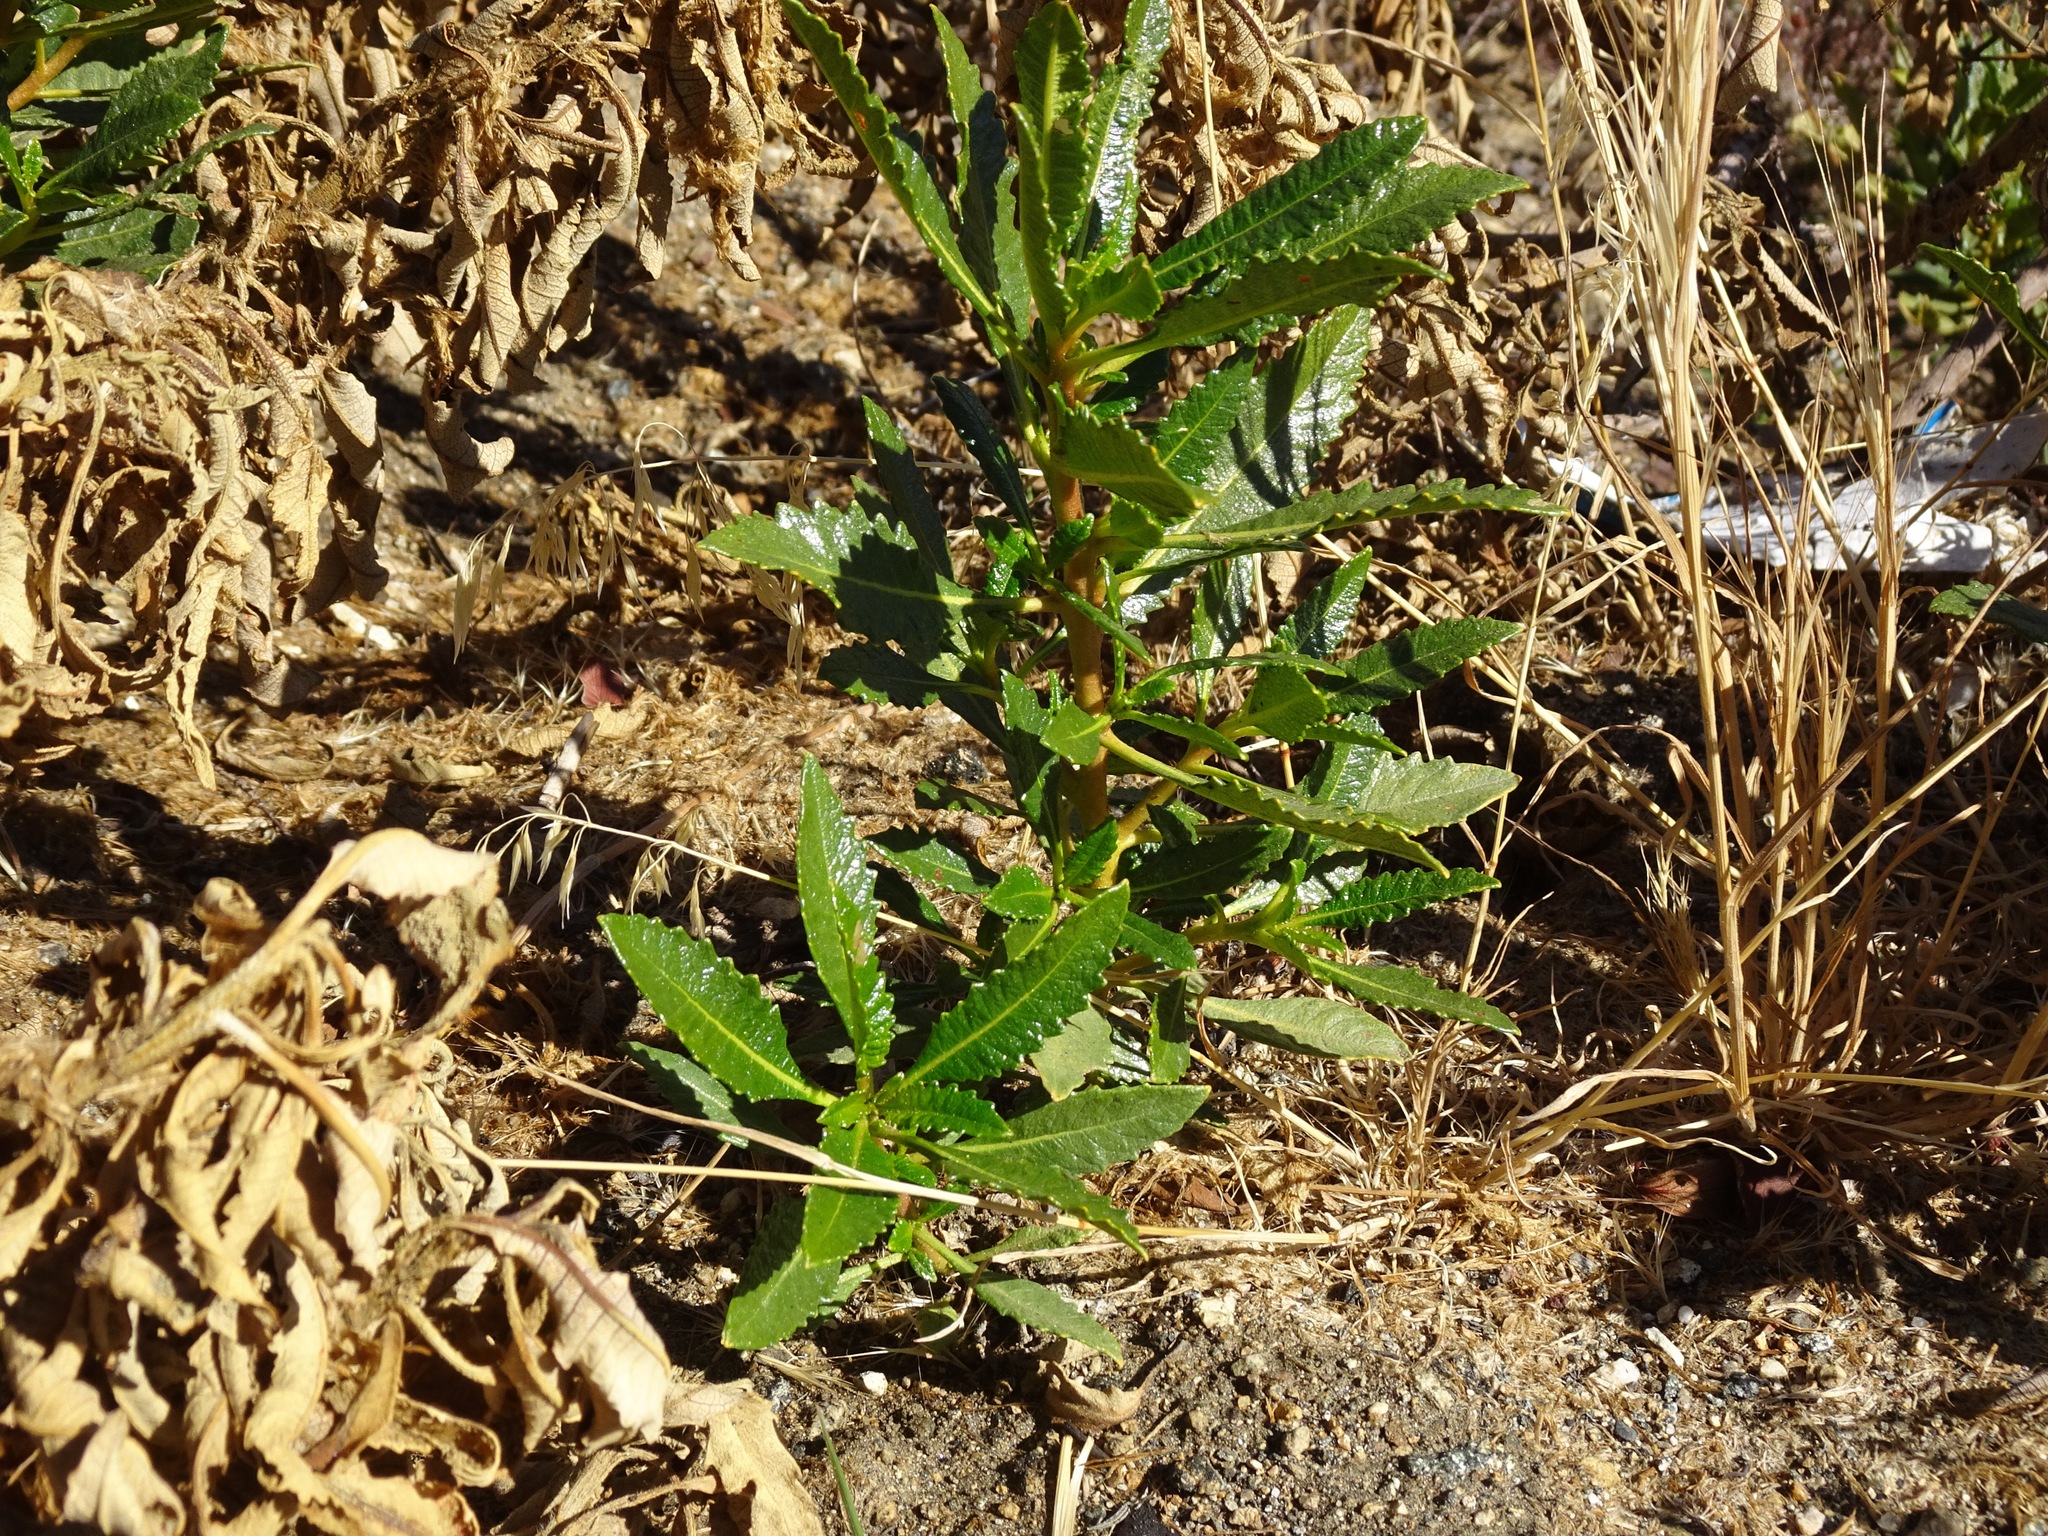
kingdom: Plantae
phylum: Tracheophyta
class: Magnoliopsida
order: Boraginales
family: Namaceae
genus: Eriodictyon
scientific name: Eriodictyon trichocalyx
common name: Hairy yerba-santa
